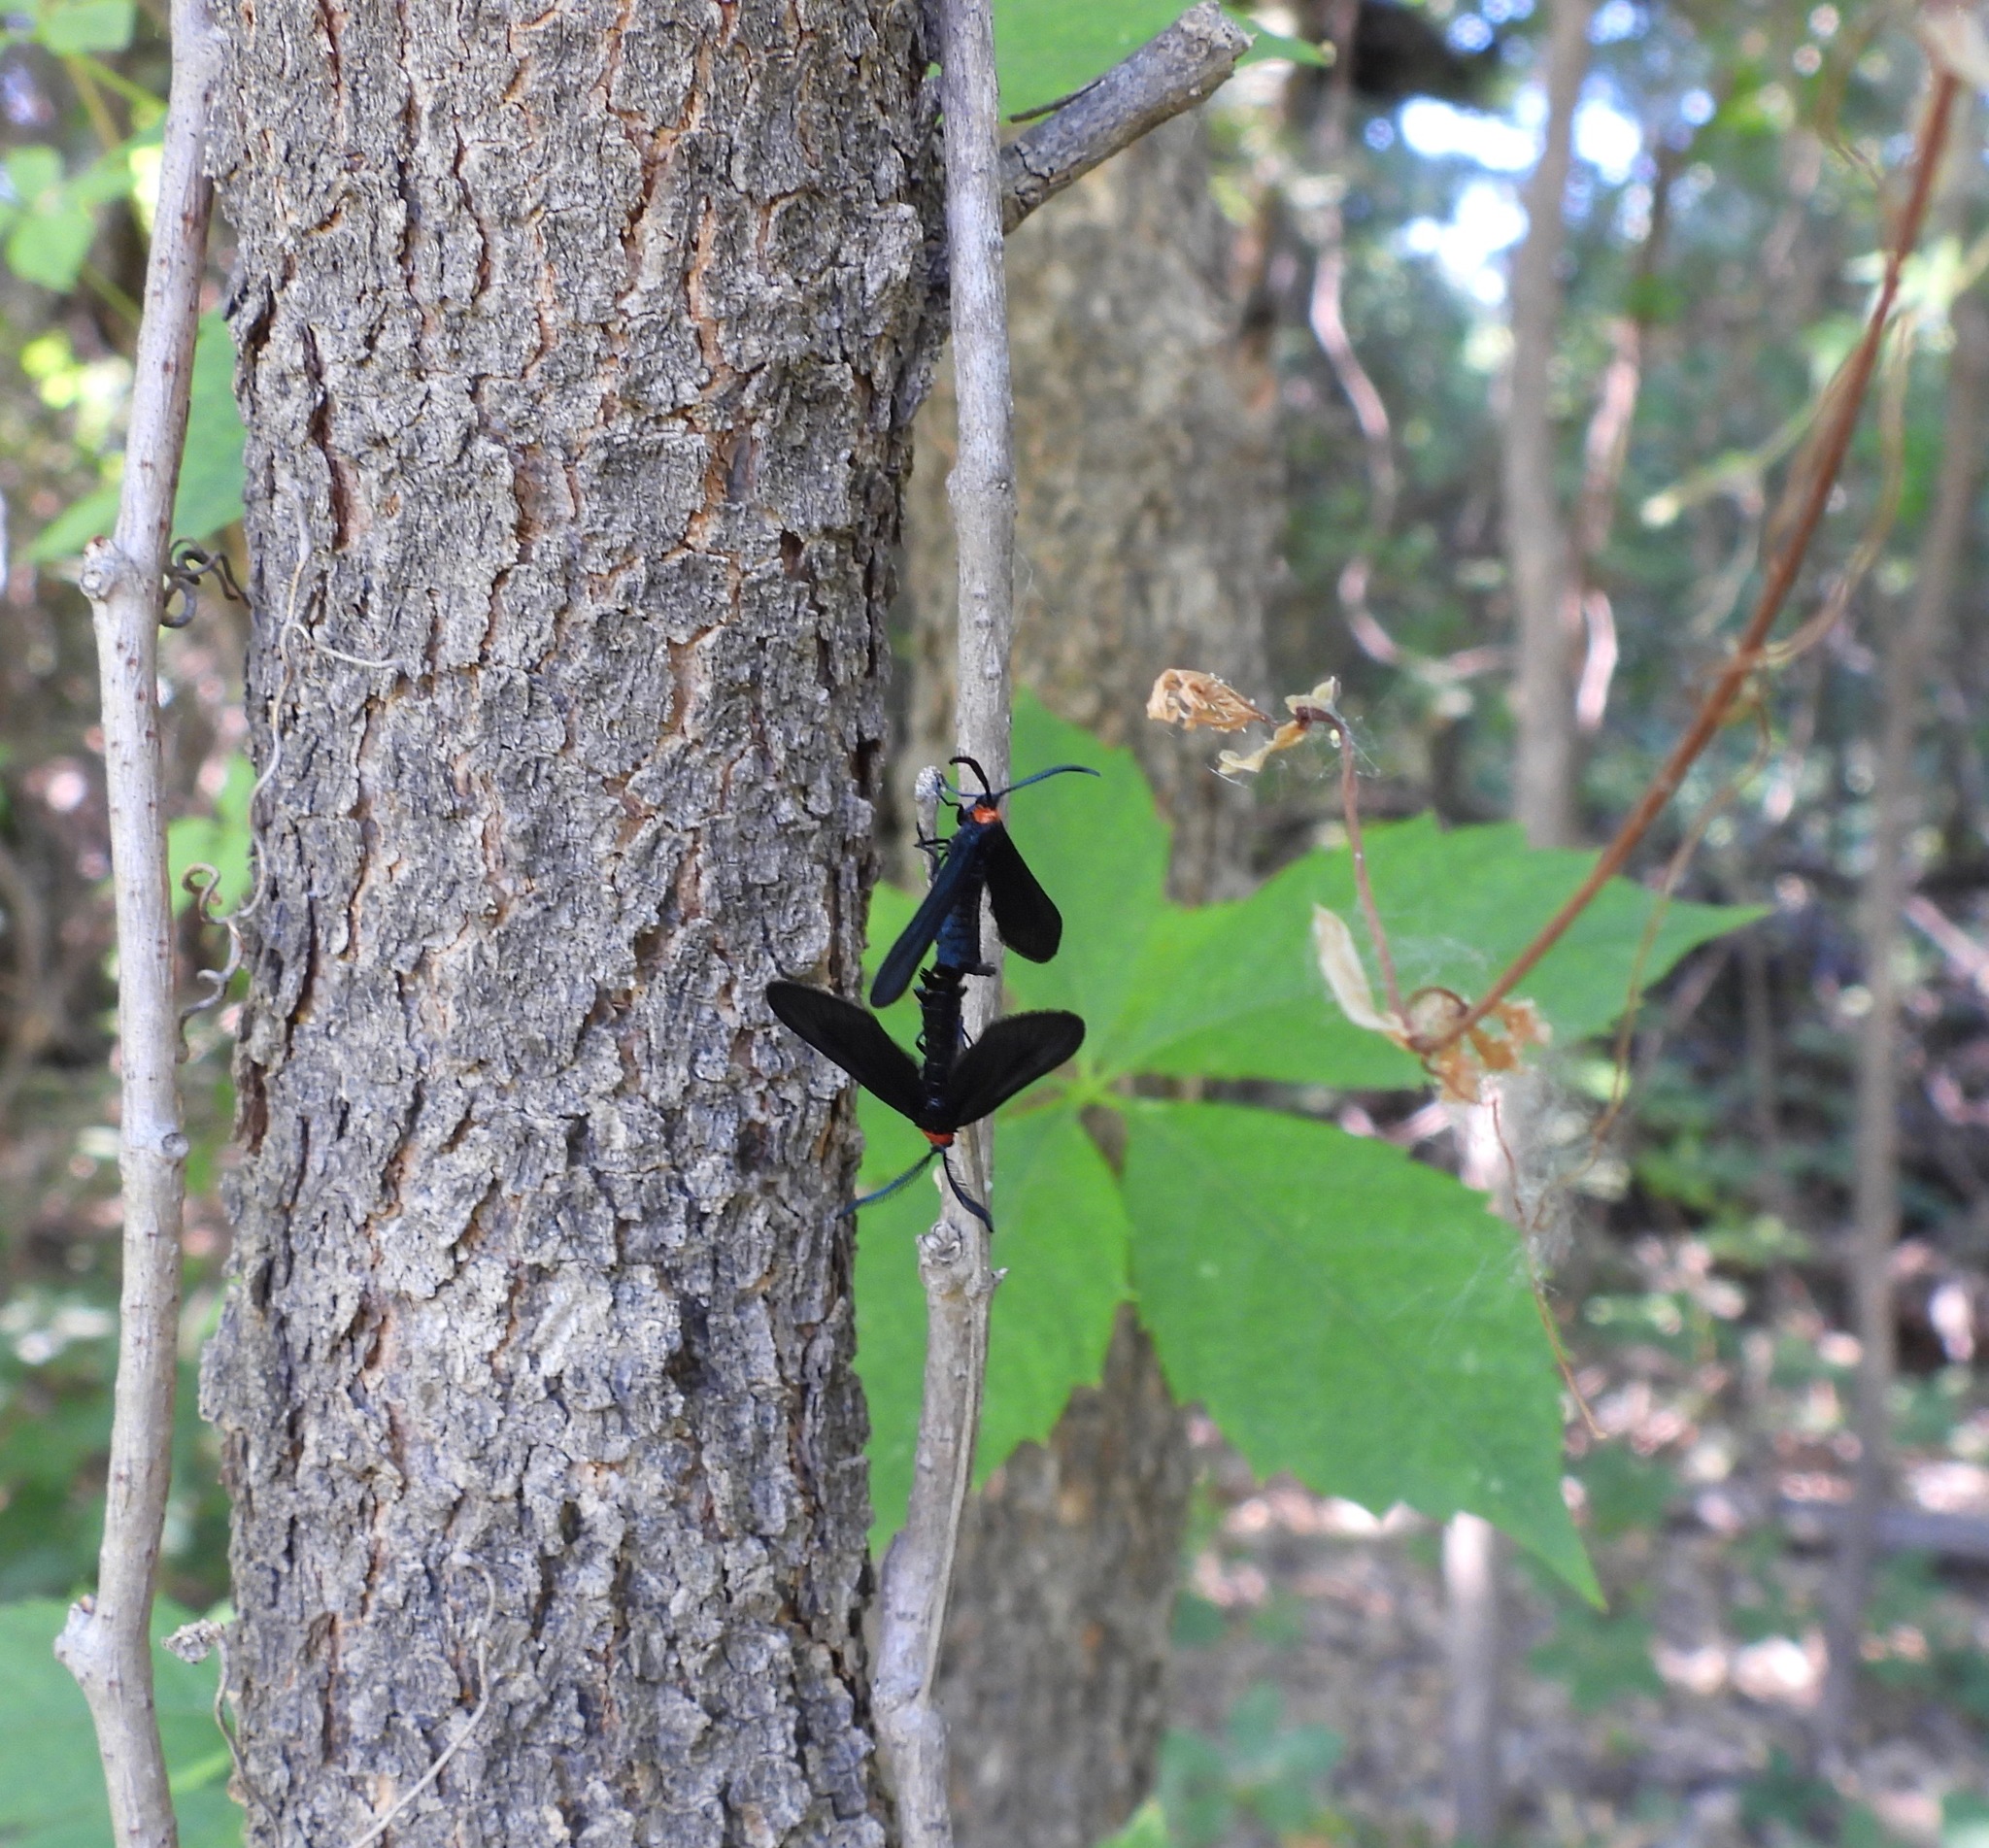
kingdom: Animalia
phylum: Arthropoda
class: Insecta
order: Lepidoptera
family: Zygaenidae
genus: Harrisina
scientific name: Harrisina metallica
